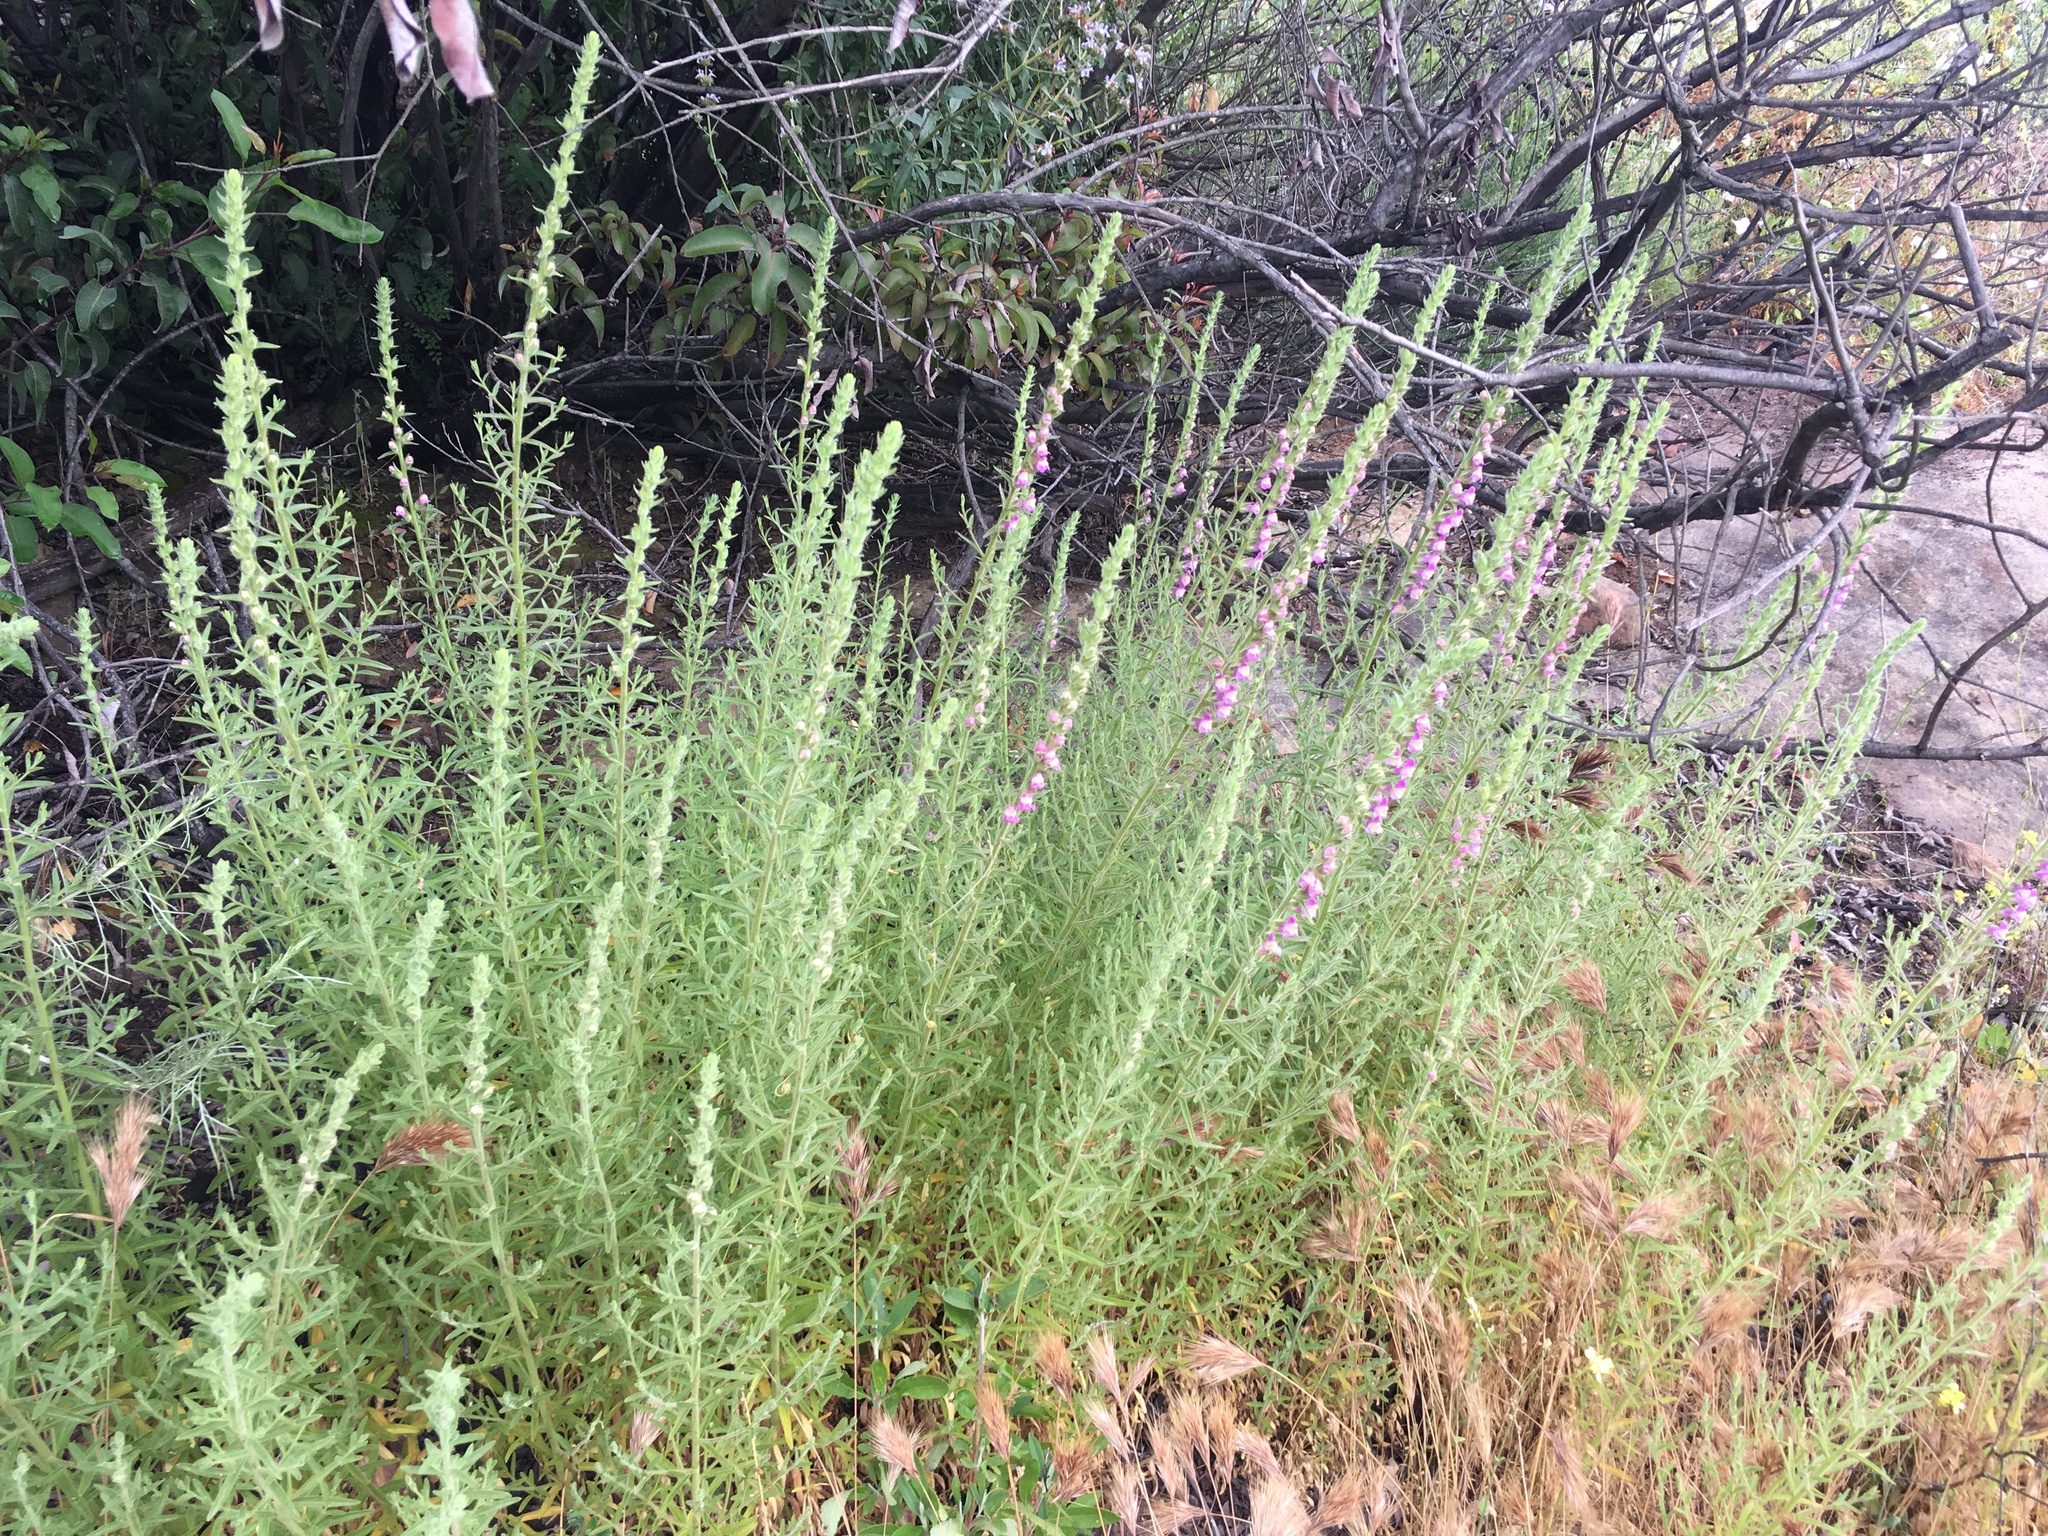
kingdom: Plantae
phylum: Tracheophyta
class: Magnoliopsida
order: Lamiales
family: Plantaginaceae
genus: Sairocarpus
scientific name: Sairocarpus multiflorus
